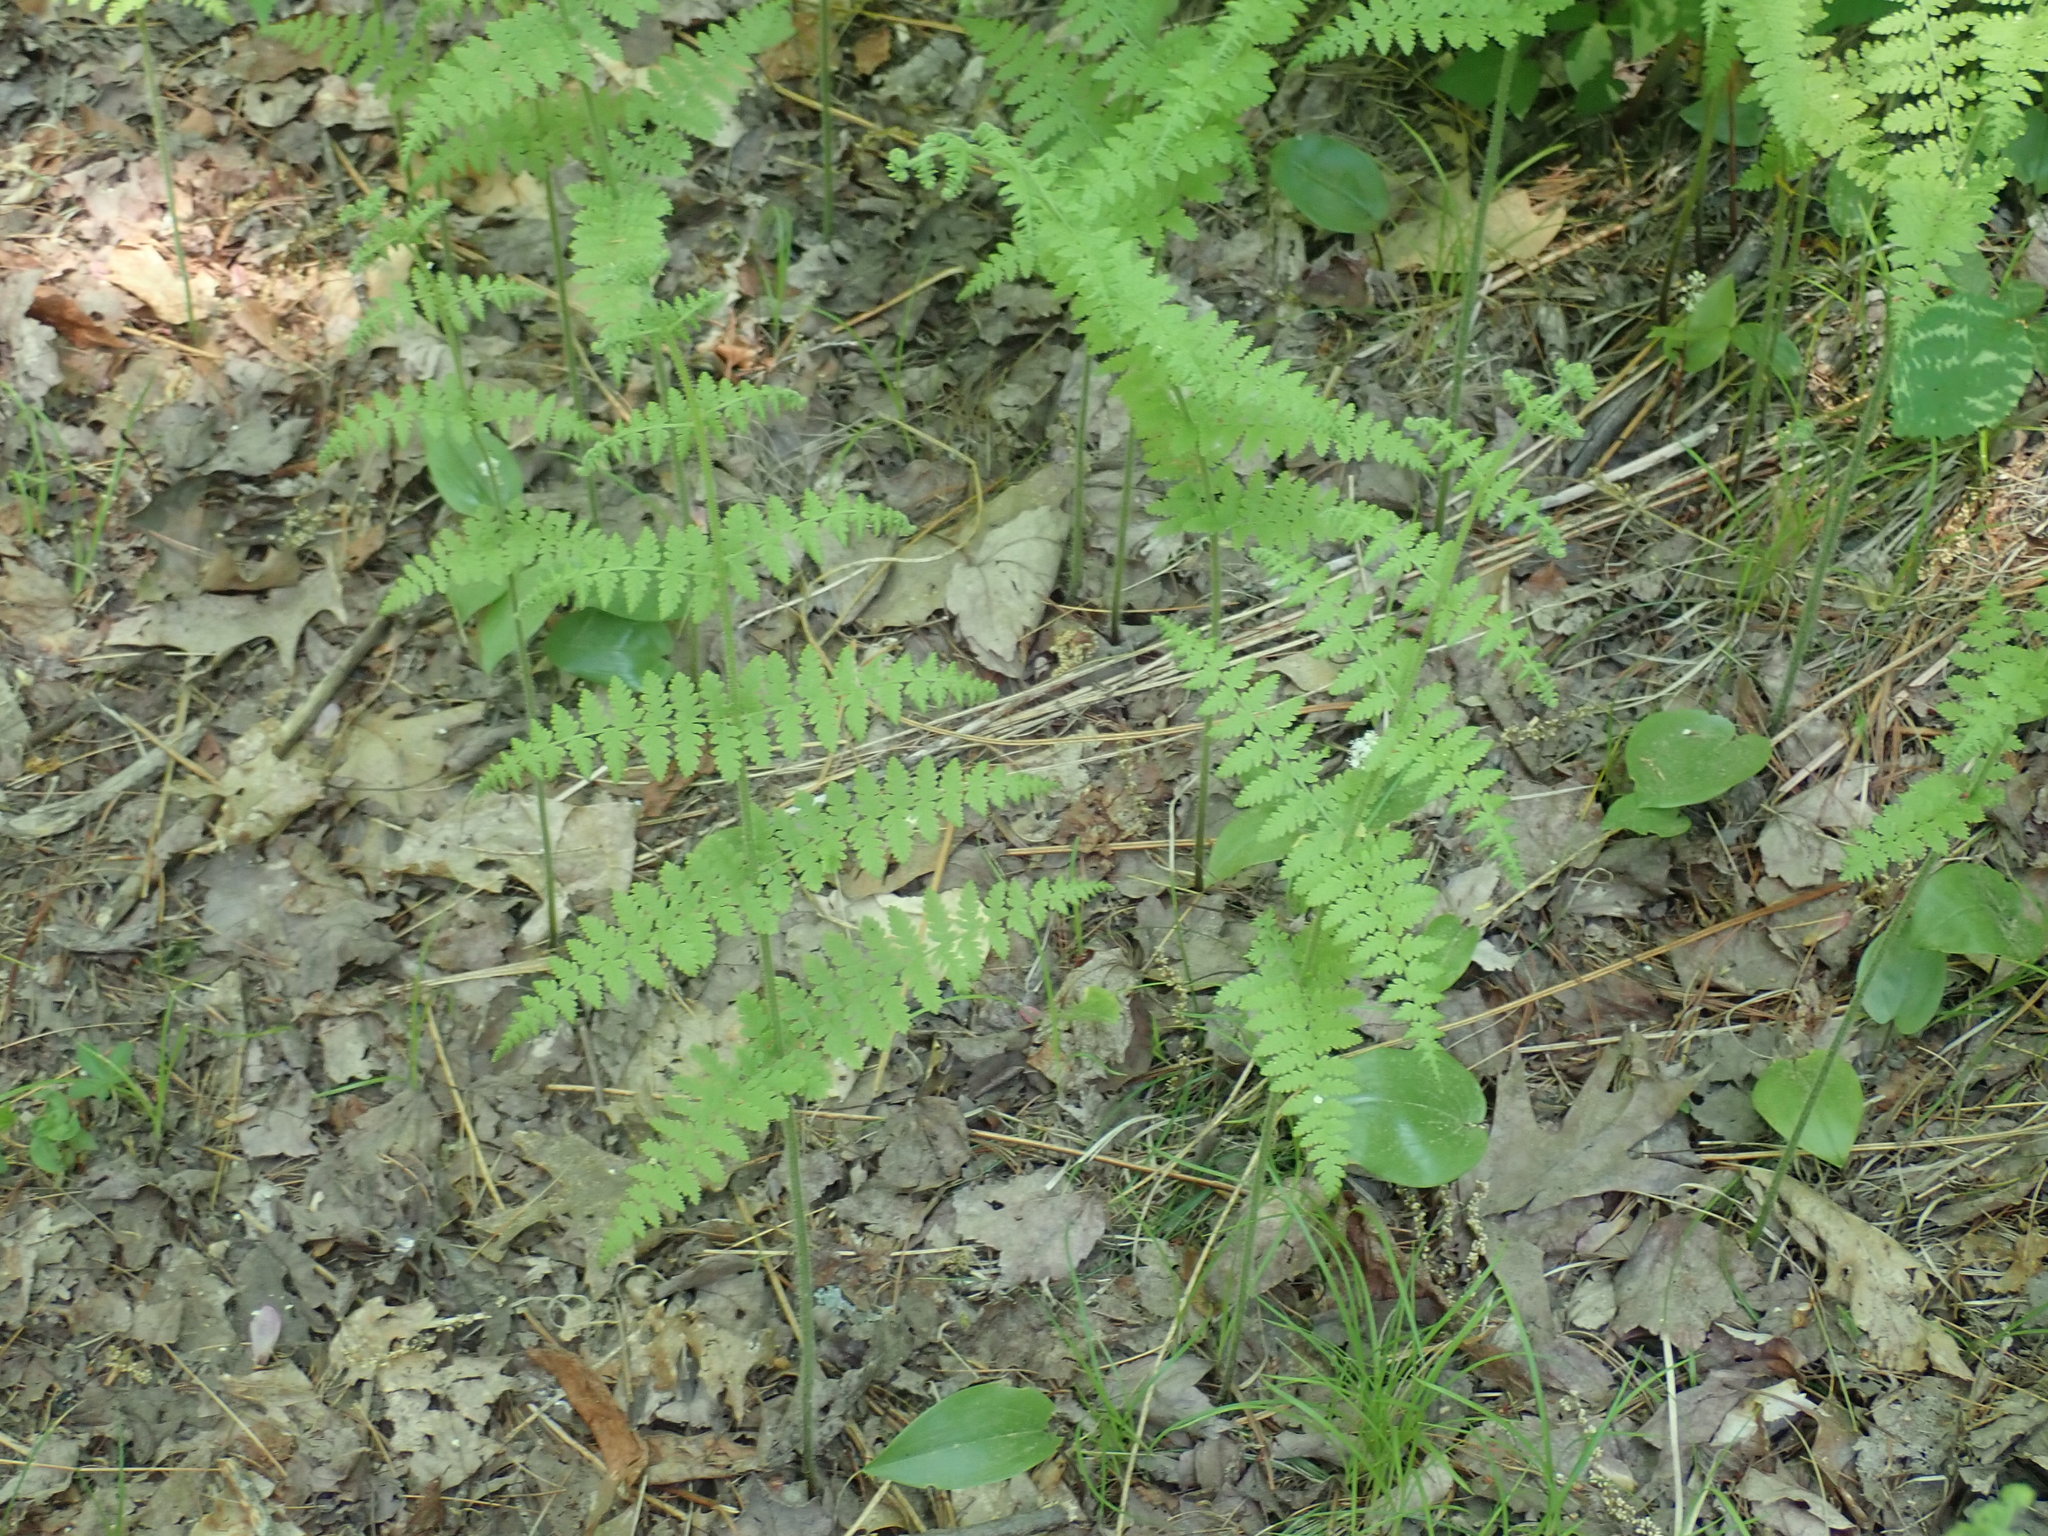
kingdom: Plantae
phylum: Tracheophyta
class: Polypodiopsida
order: Polypodiales
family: Dennstaedtiaceae
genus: Sitobolium
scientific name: Sitobolium punctilobum
